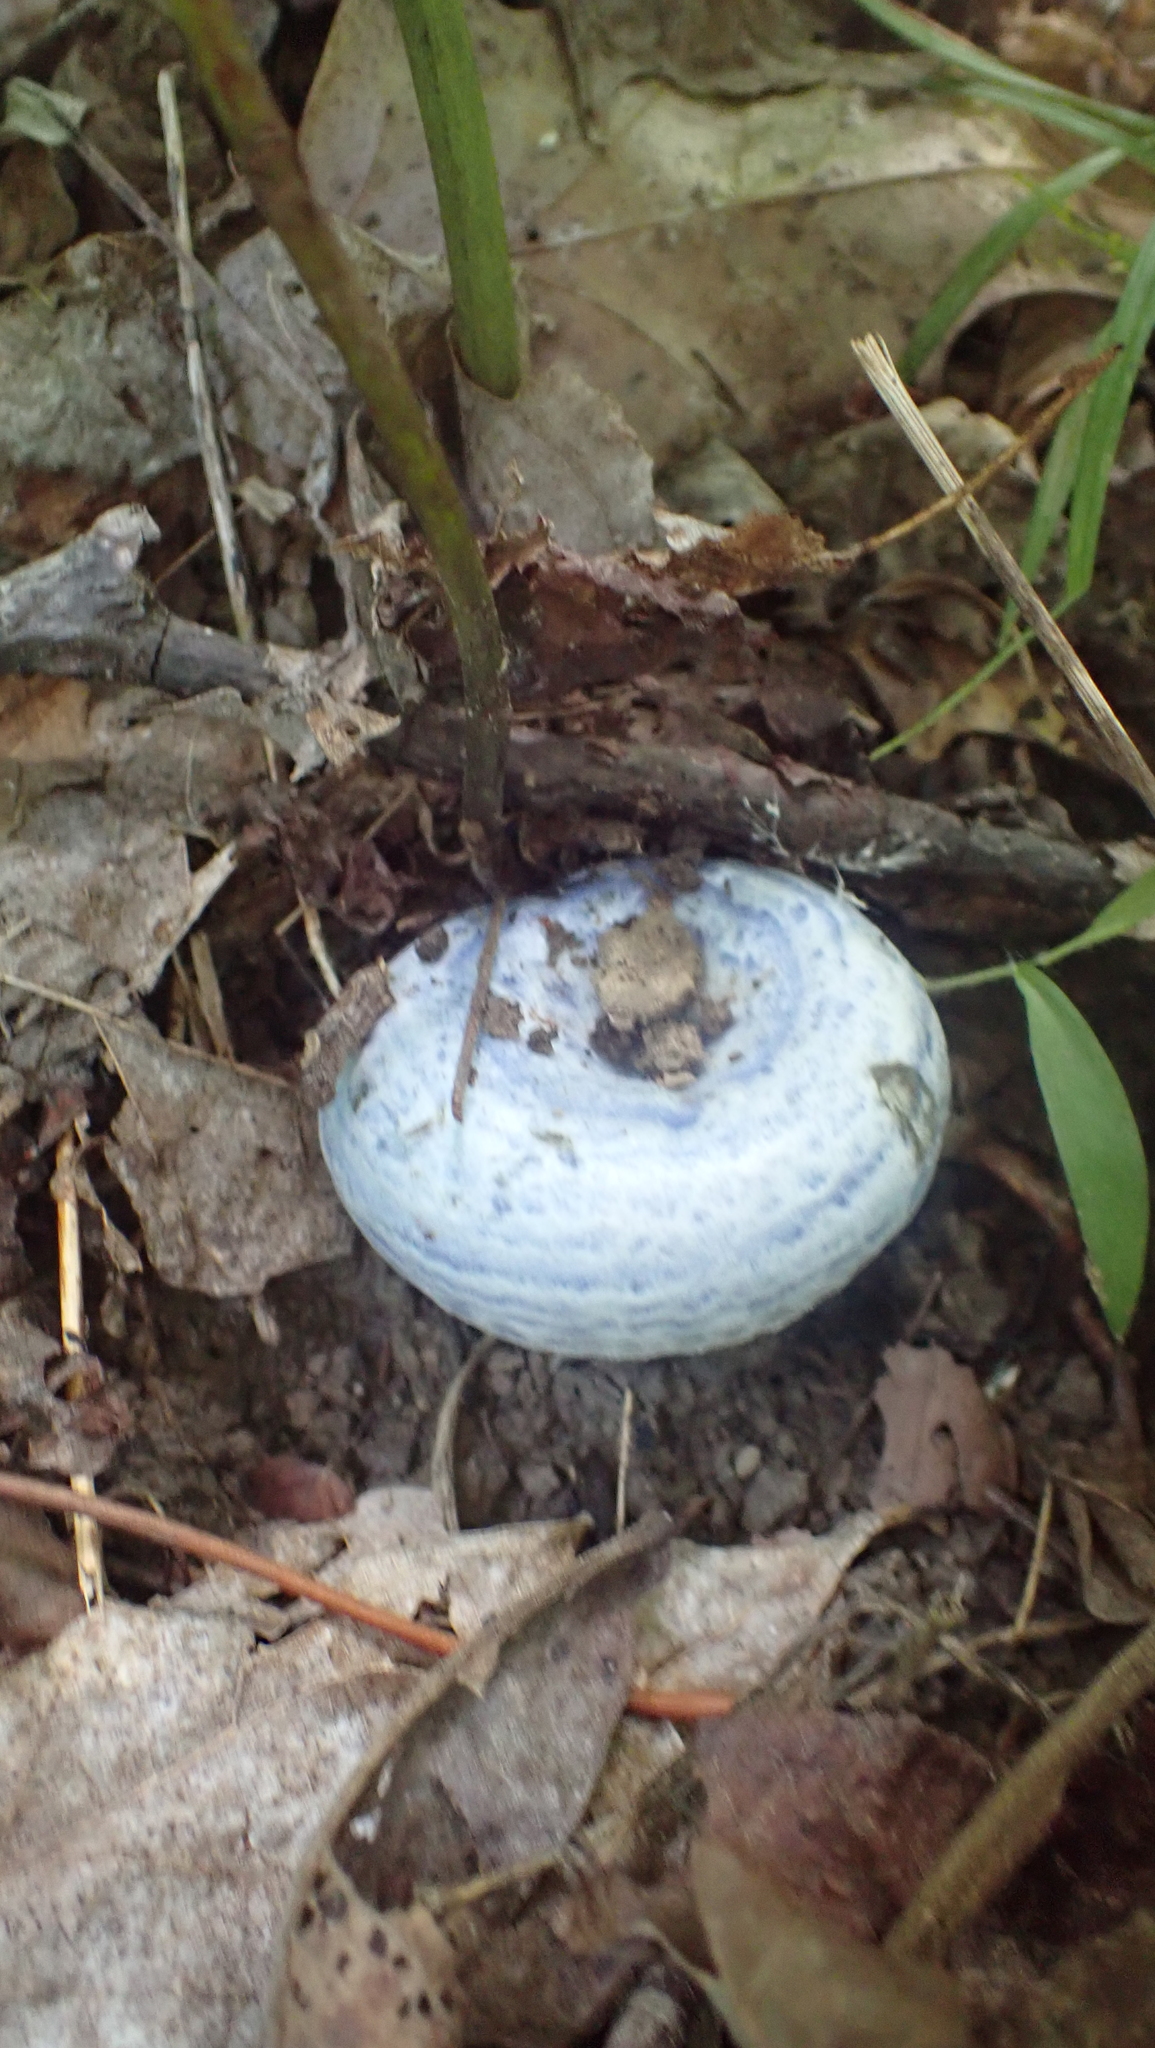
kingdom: Fungi
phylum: Basidiomycota
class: Agaricomycetes
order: Russulales
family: Russulaceae
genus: Lactarius
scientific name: Lactarius indigo
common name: Indigo milk cap
